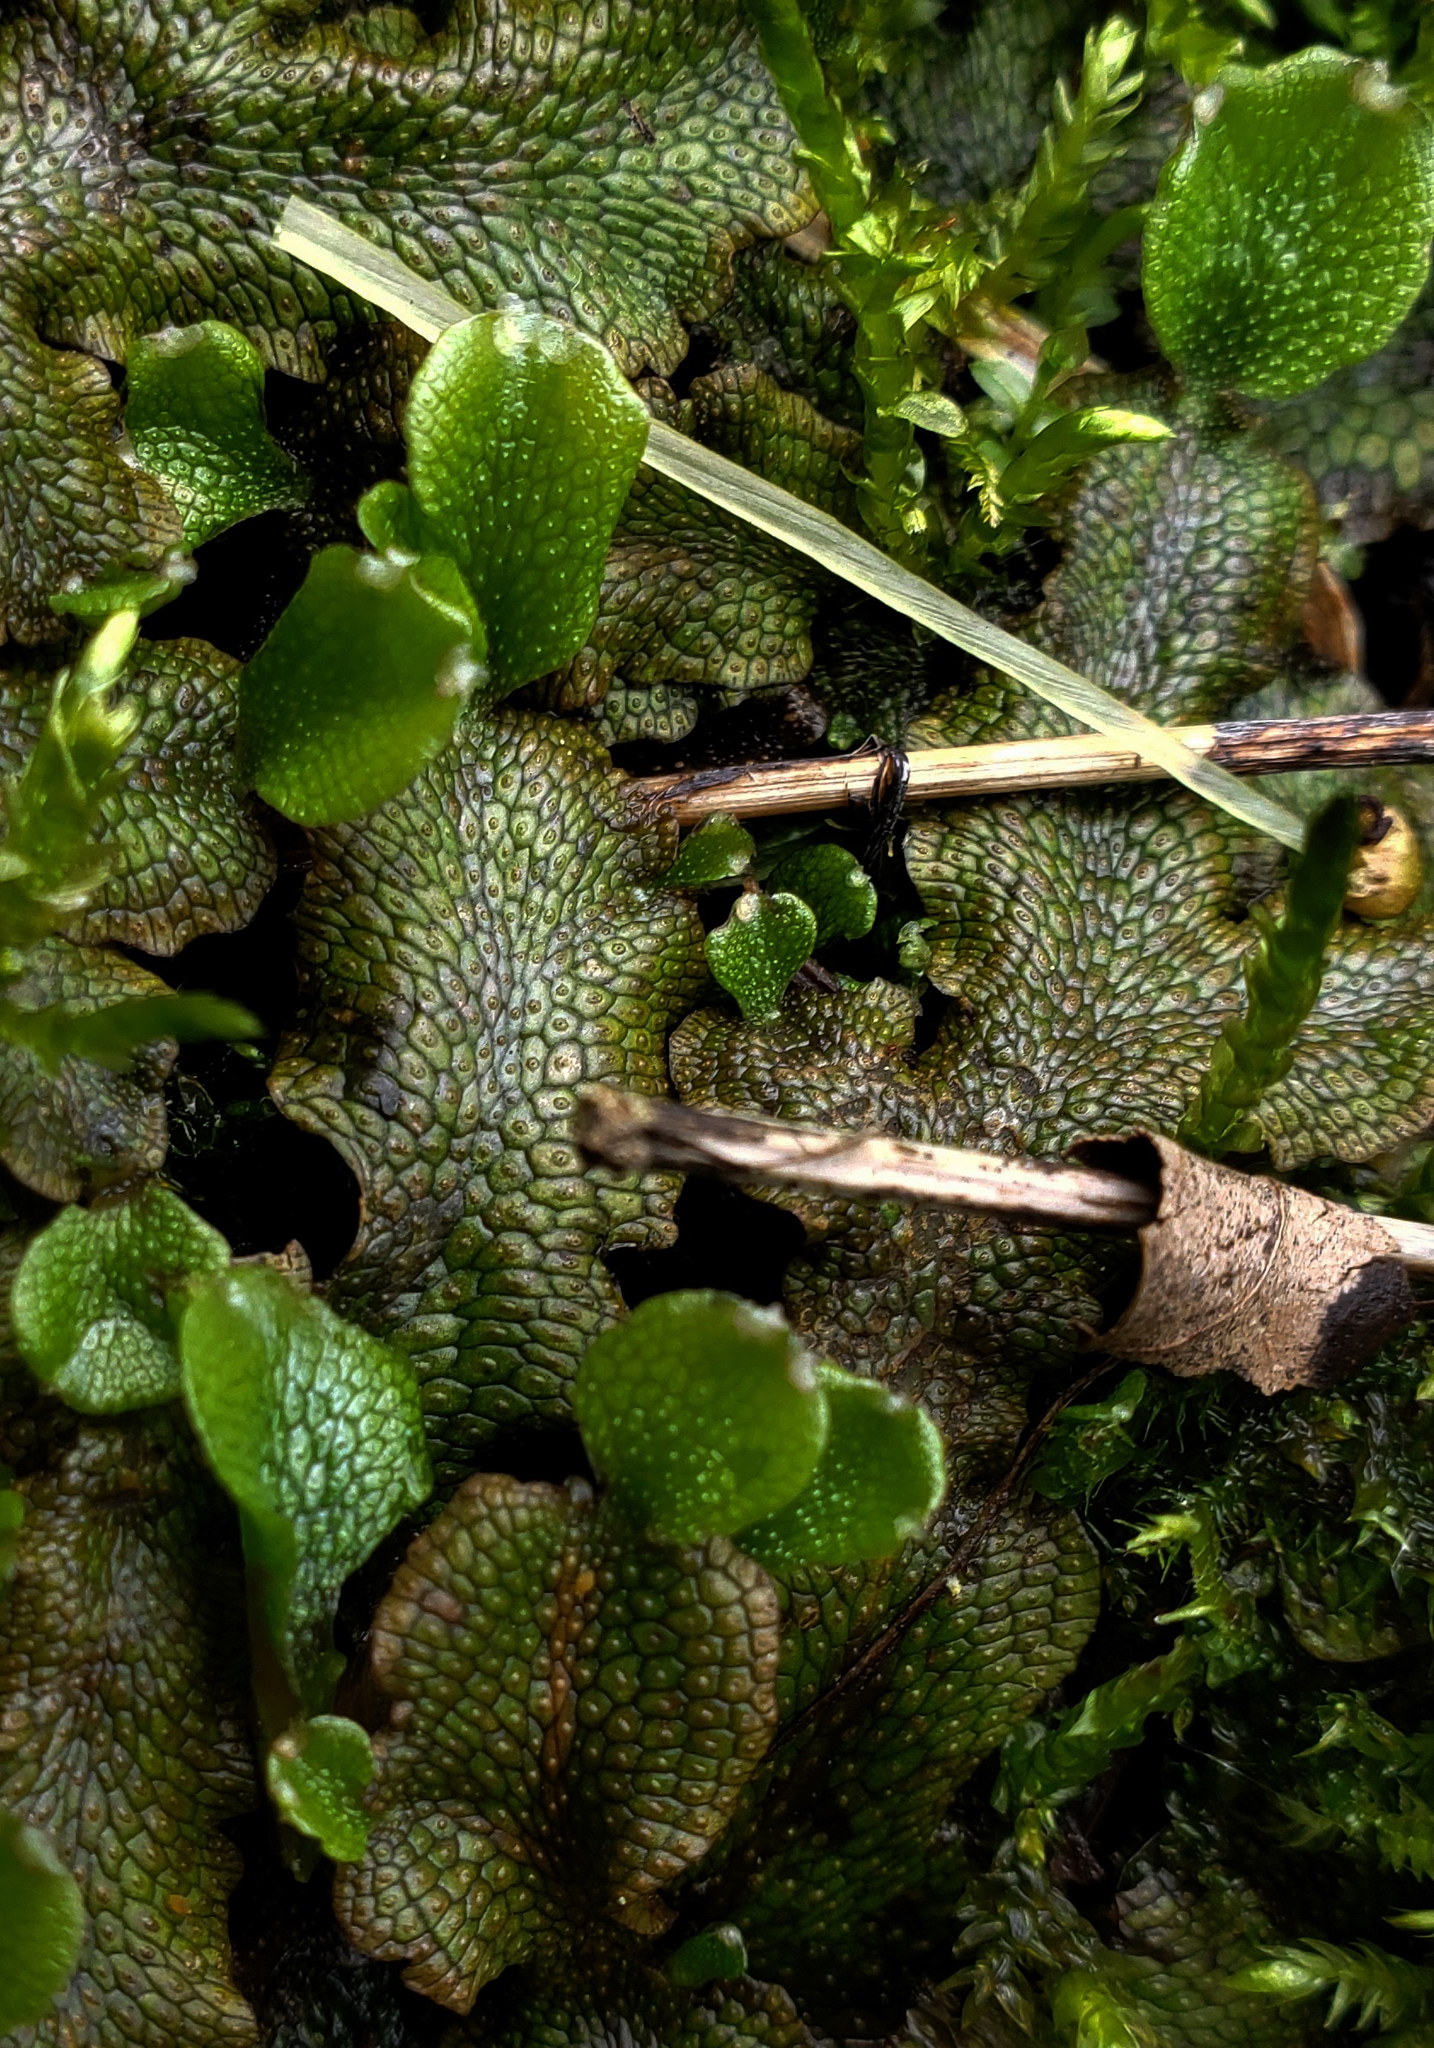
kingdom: Plantae
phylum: Marchantiophyta
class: Marchantiopsida
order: Marchantiales
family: Conocephalaceae
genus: Conocephalum
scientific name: Conocephalum salebrosum
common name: Cat-tongue liverwort
